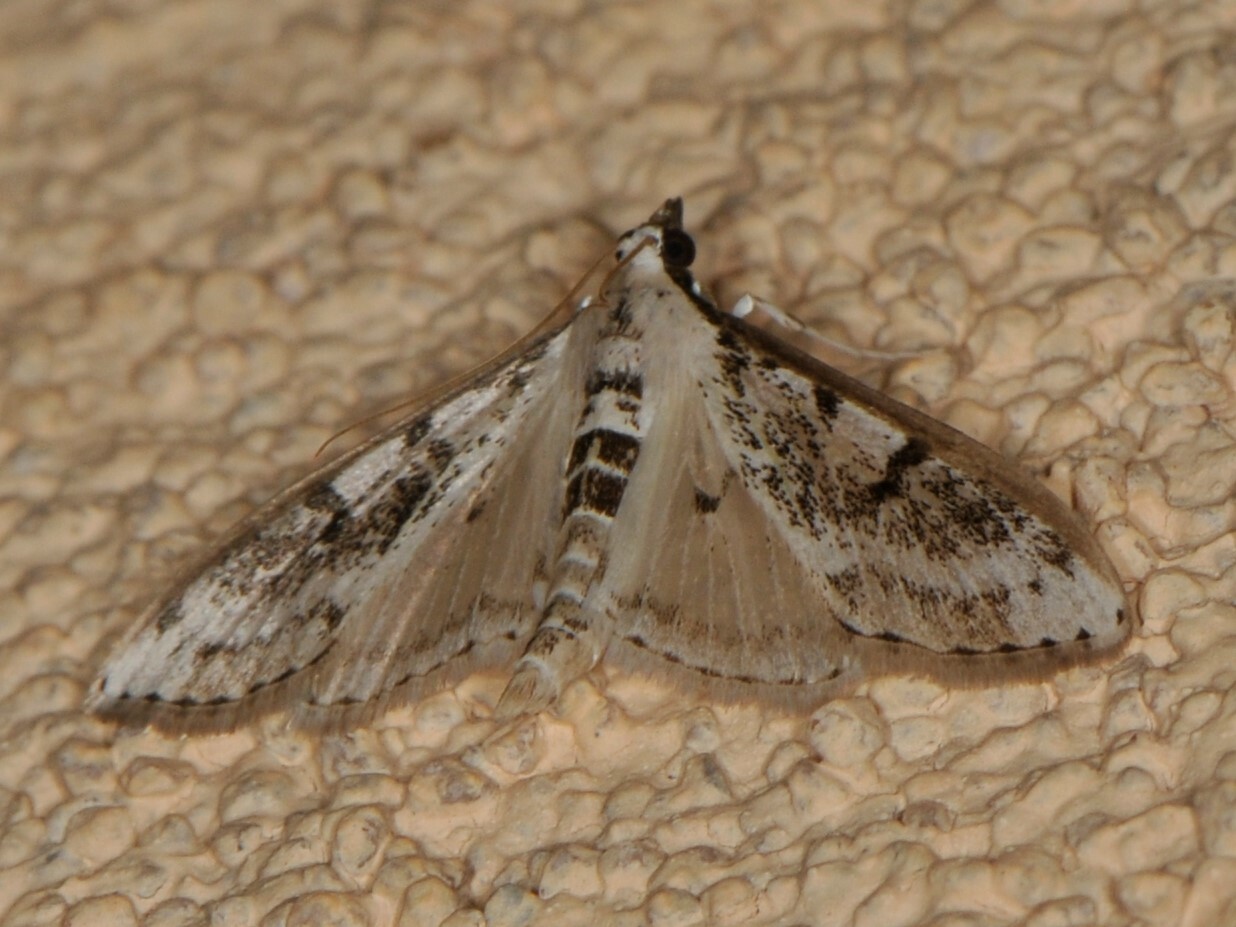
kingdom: Animalia
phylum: Arthropoda
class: Insecta
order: Lepidoptera
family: Crambidae
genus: Palpita
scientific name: Palpita gracilalis
